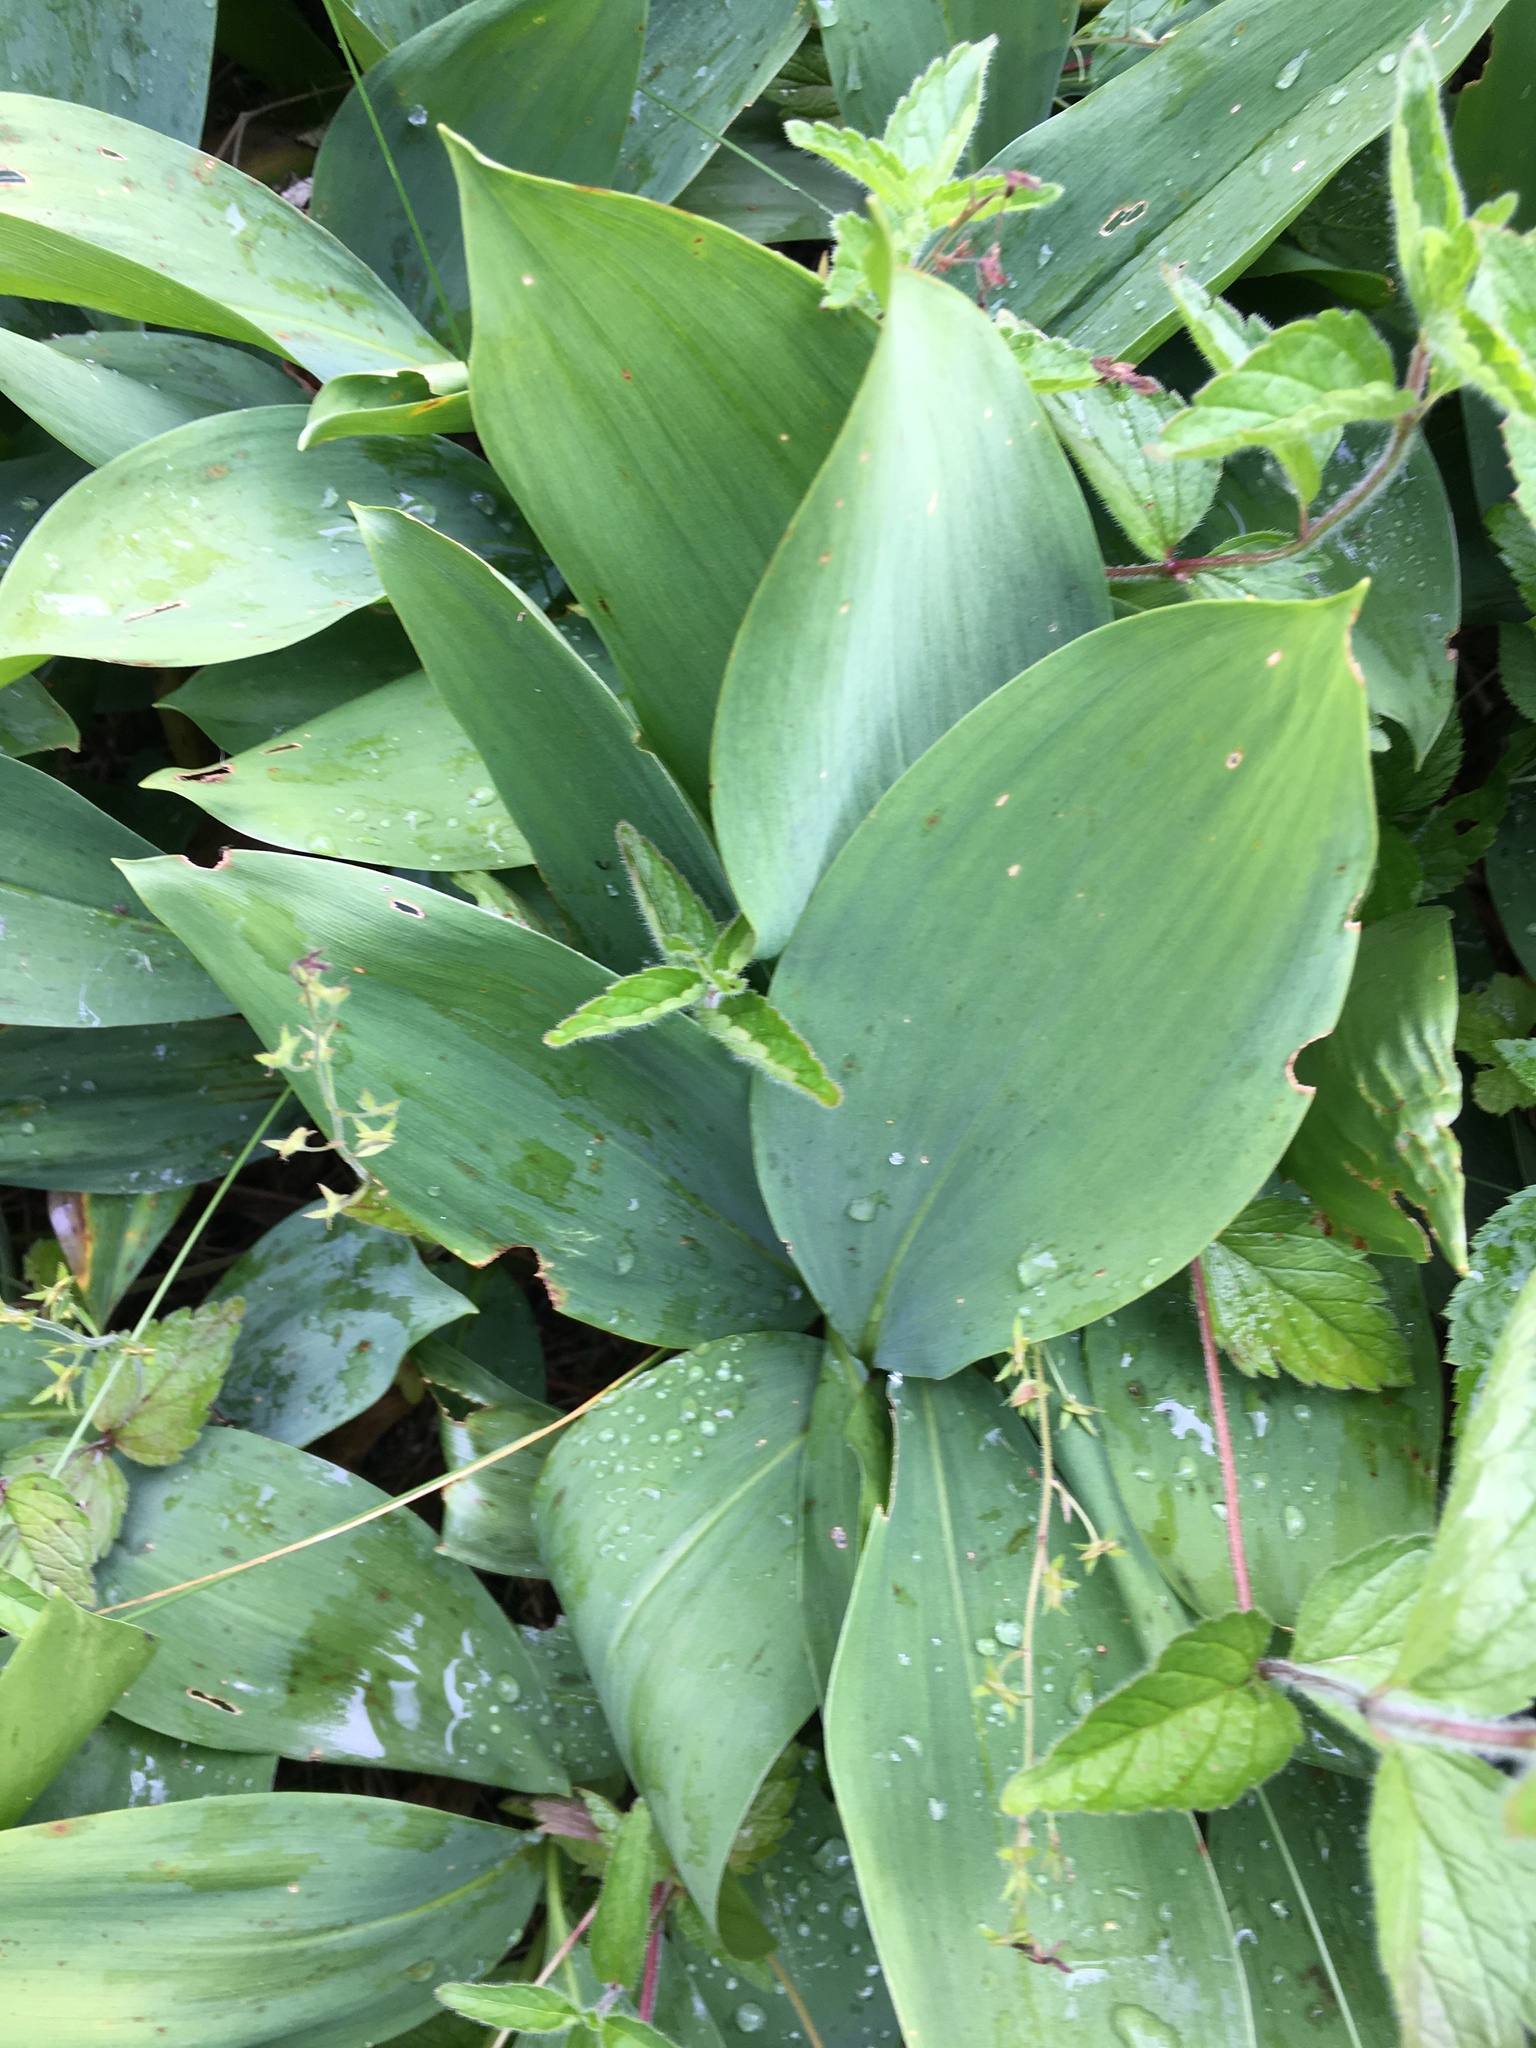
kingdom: Plantae
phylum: Tracheophyta
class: Liliopsida
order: Asparagales
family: Asparagaceae
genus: Convallaria
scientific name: Convallaria majalis
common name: Lily-of-the-valley
